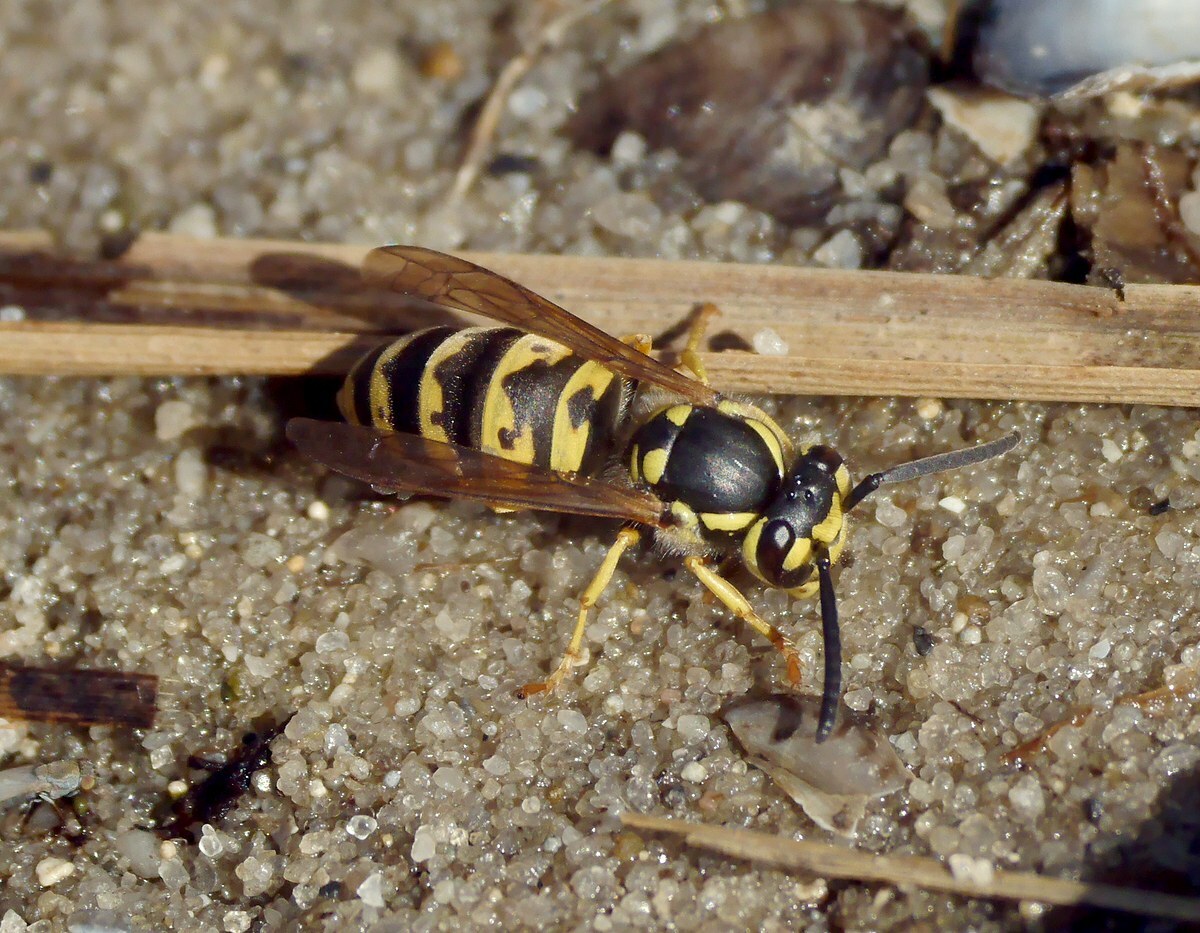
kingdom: Animalia
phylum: Arthropoda
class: Insecta
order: Hymenoptera
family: Vespidae
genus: Vespula
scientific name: Vespula germanica
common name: German wasp
